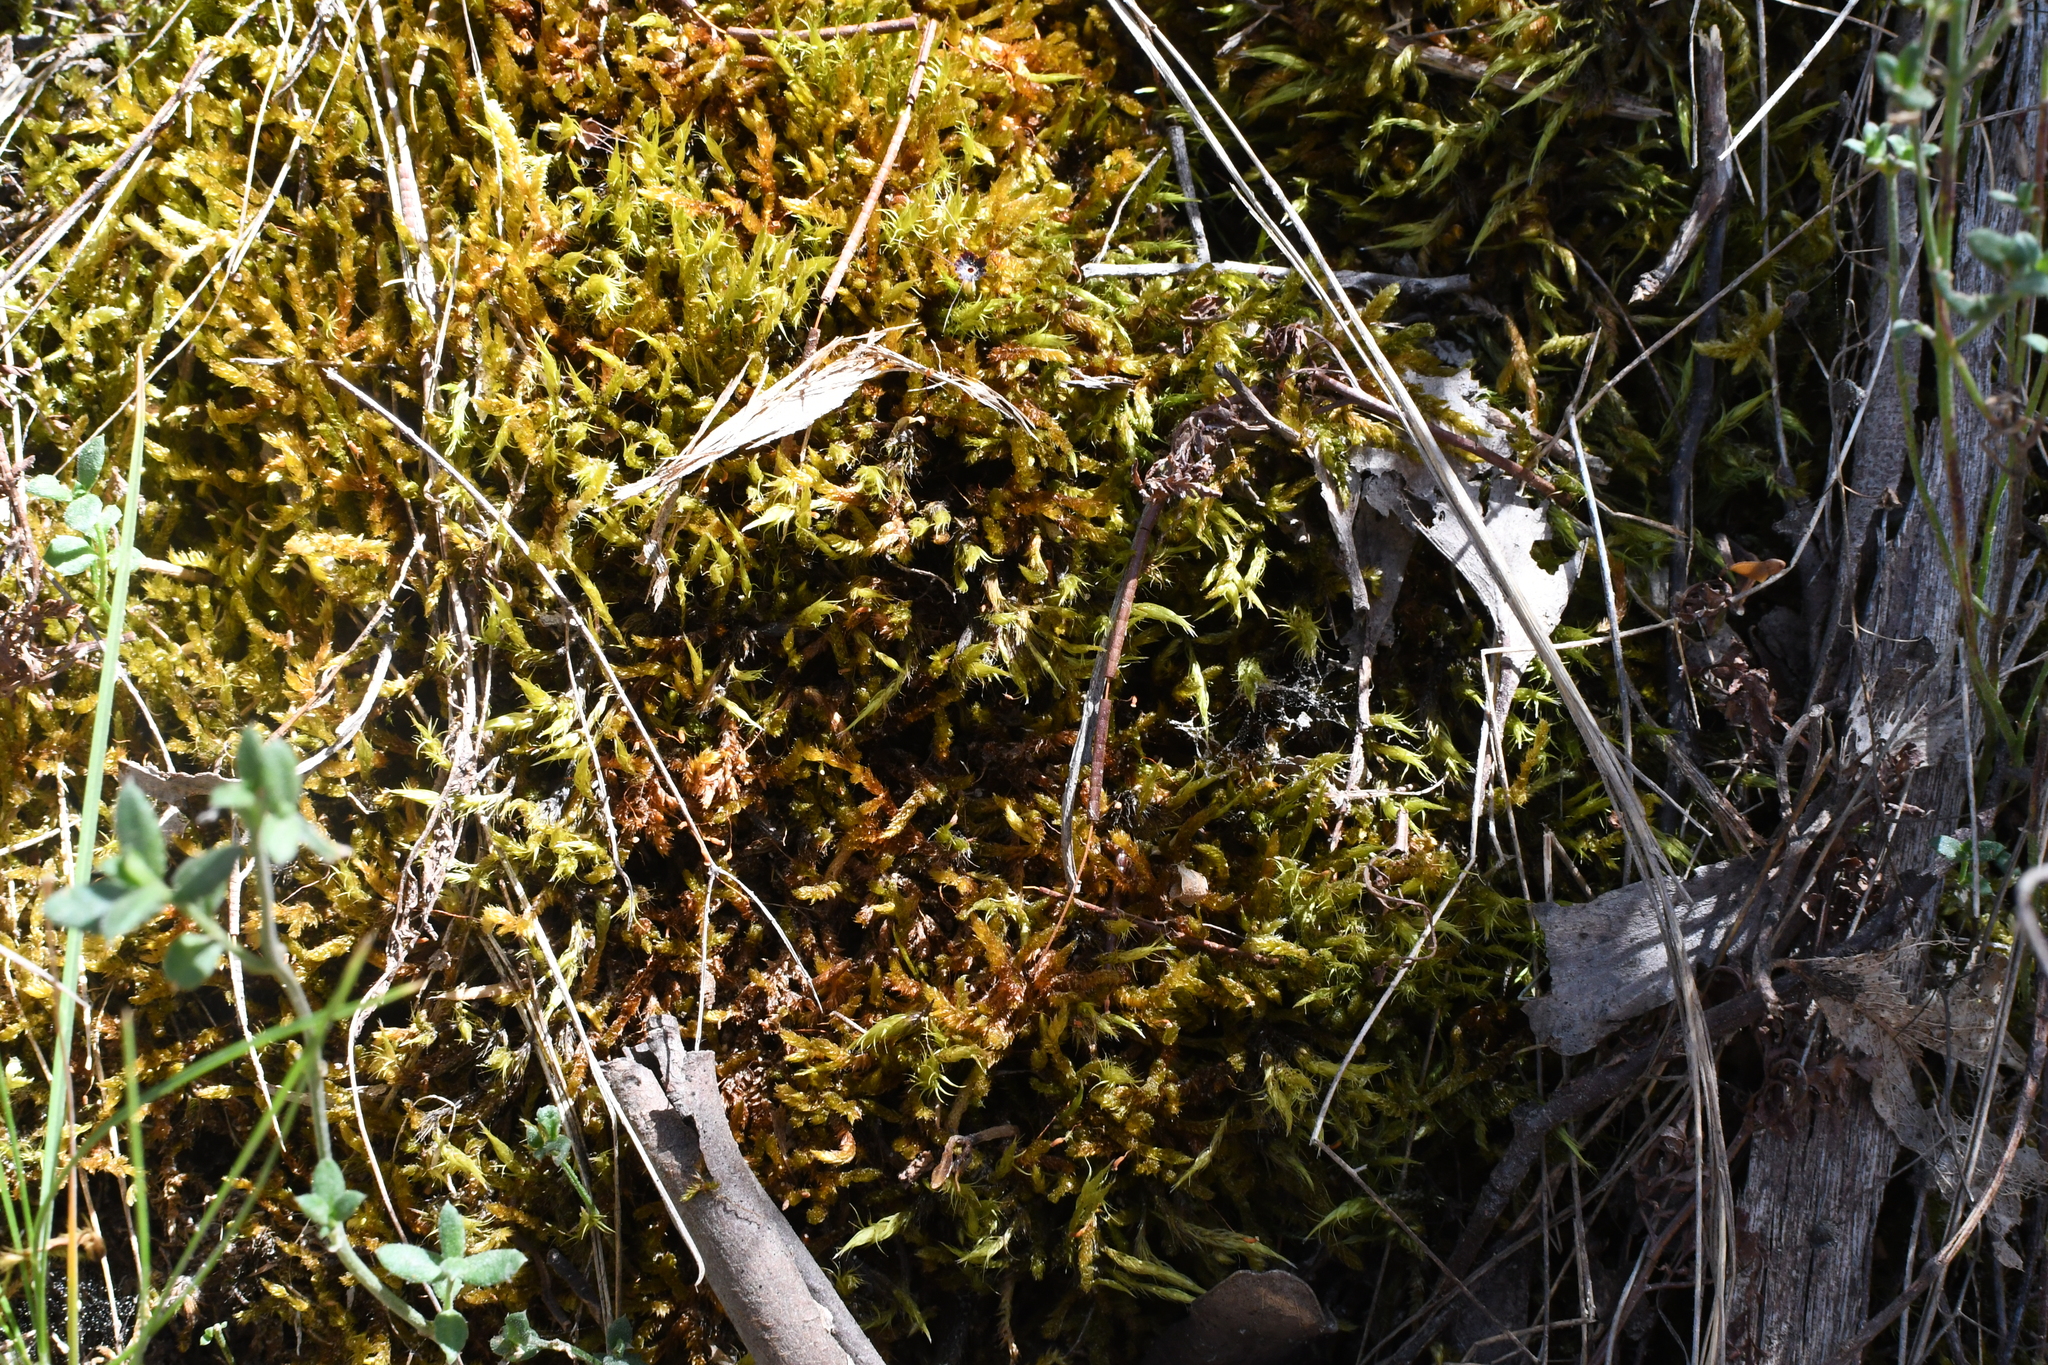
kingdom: Plantae
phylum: Bryophyta
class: Bryopsida
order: Hypnales
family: Sematophyllaceae
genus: Sematophyllum
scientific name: Sematophyllum homomallum
